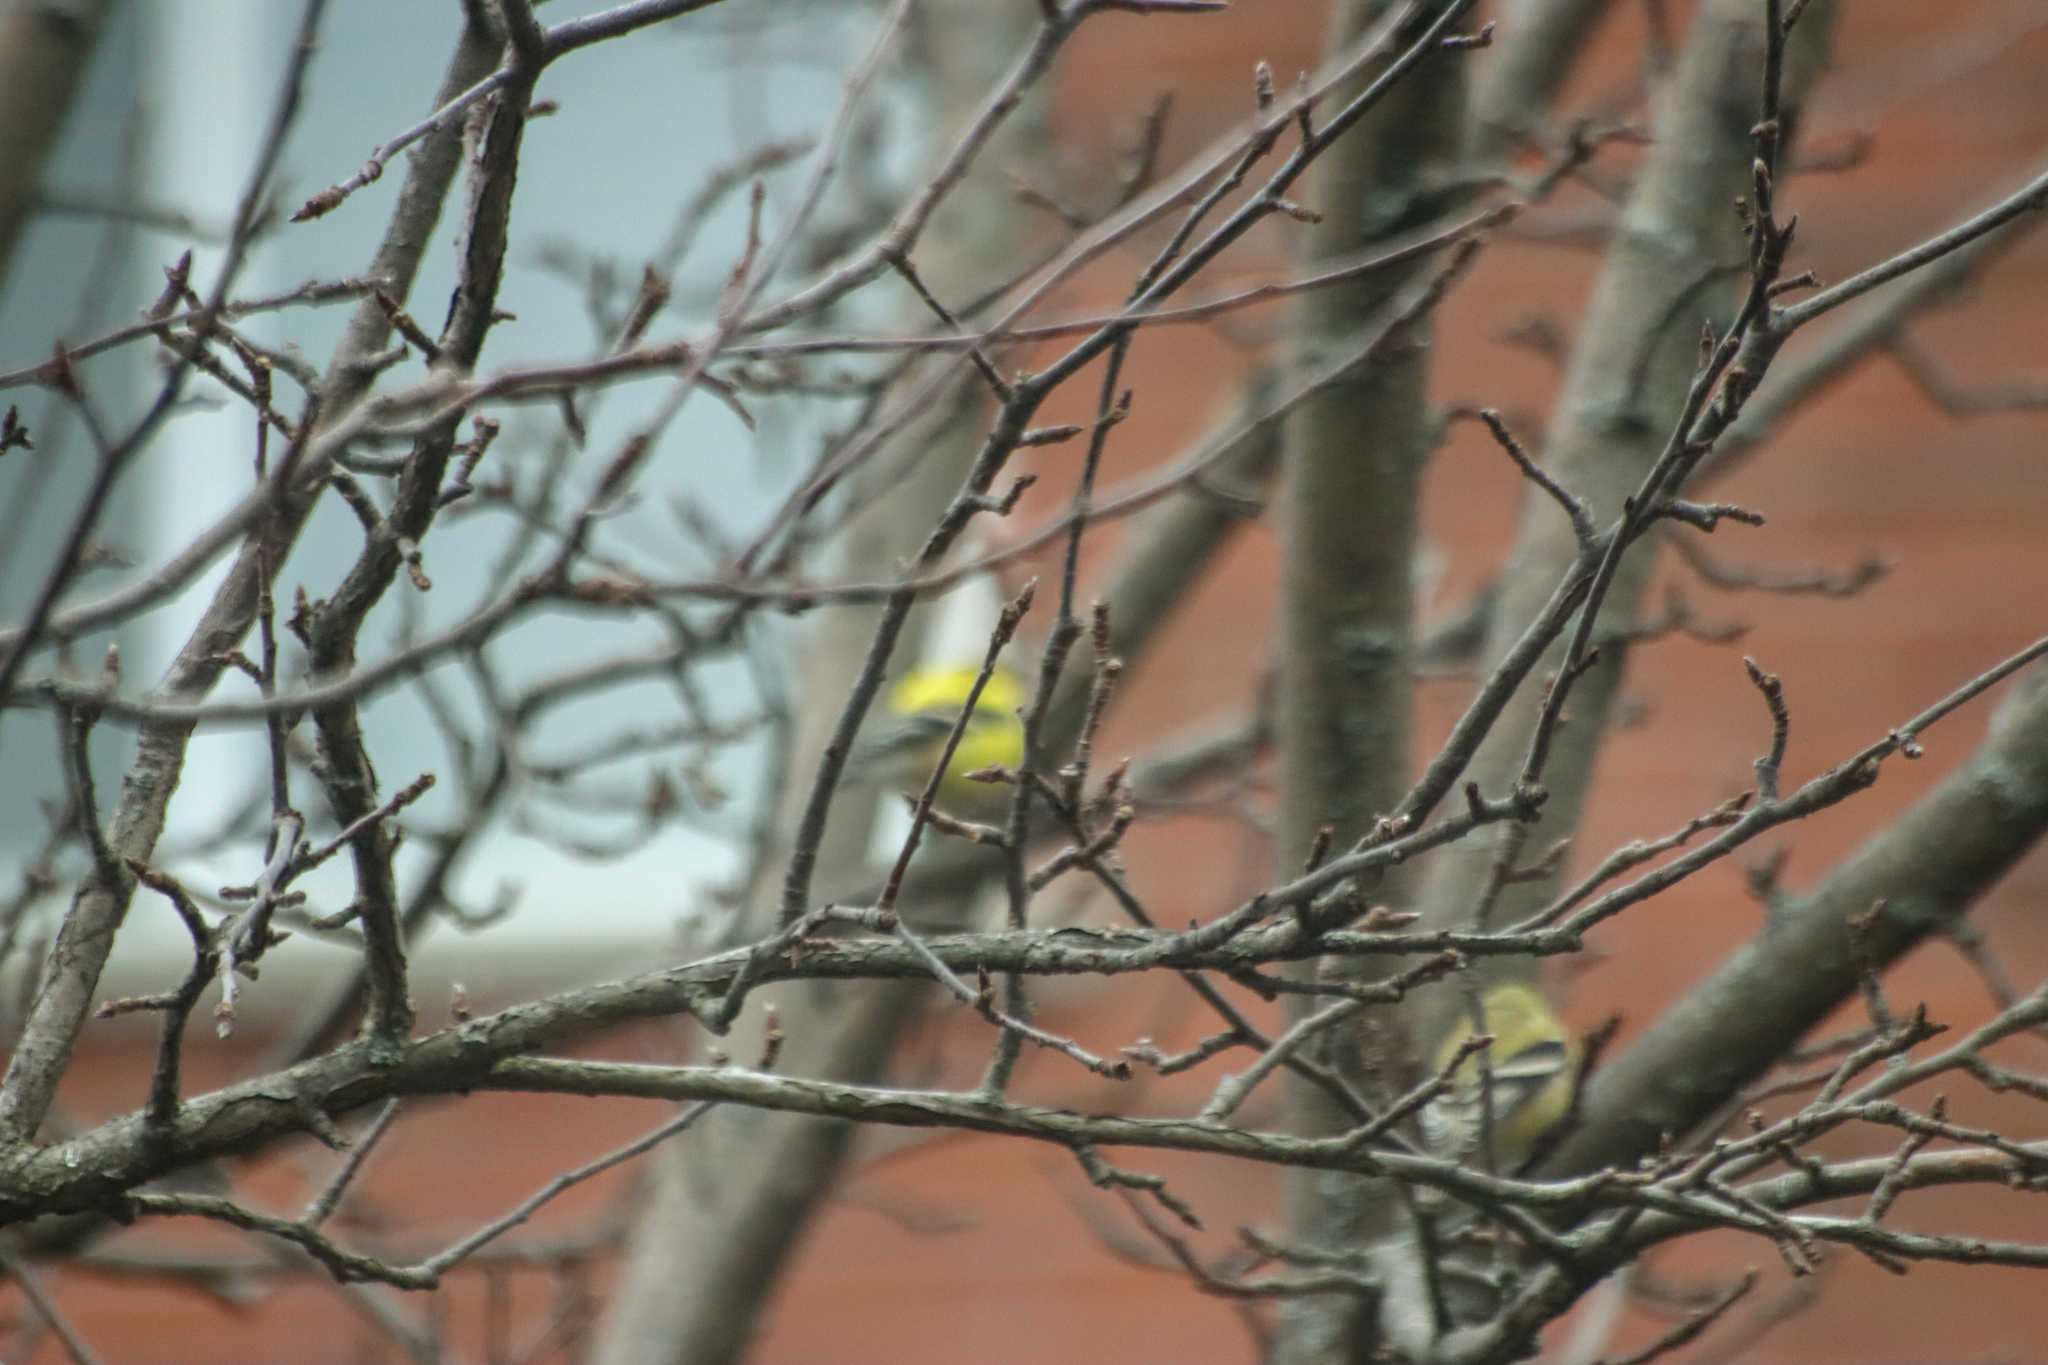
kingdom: Animalia
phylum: Chordata
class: Aves
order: Passeriformes
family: Fringillidae
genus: Spinus
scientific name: Spinus tristis
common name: American goldfinch
